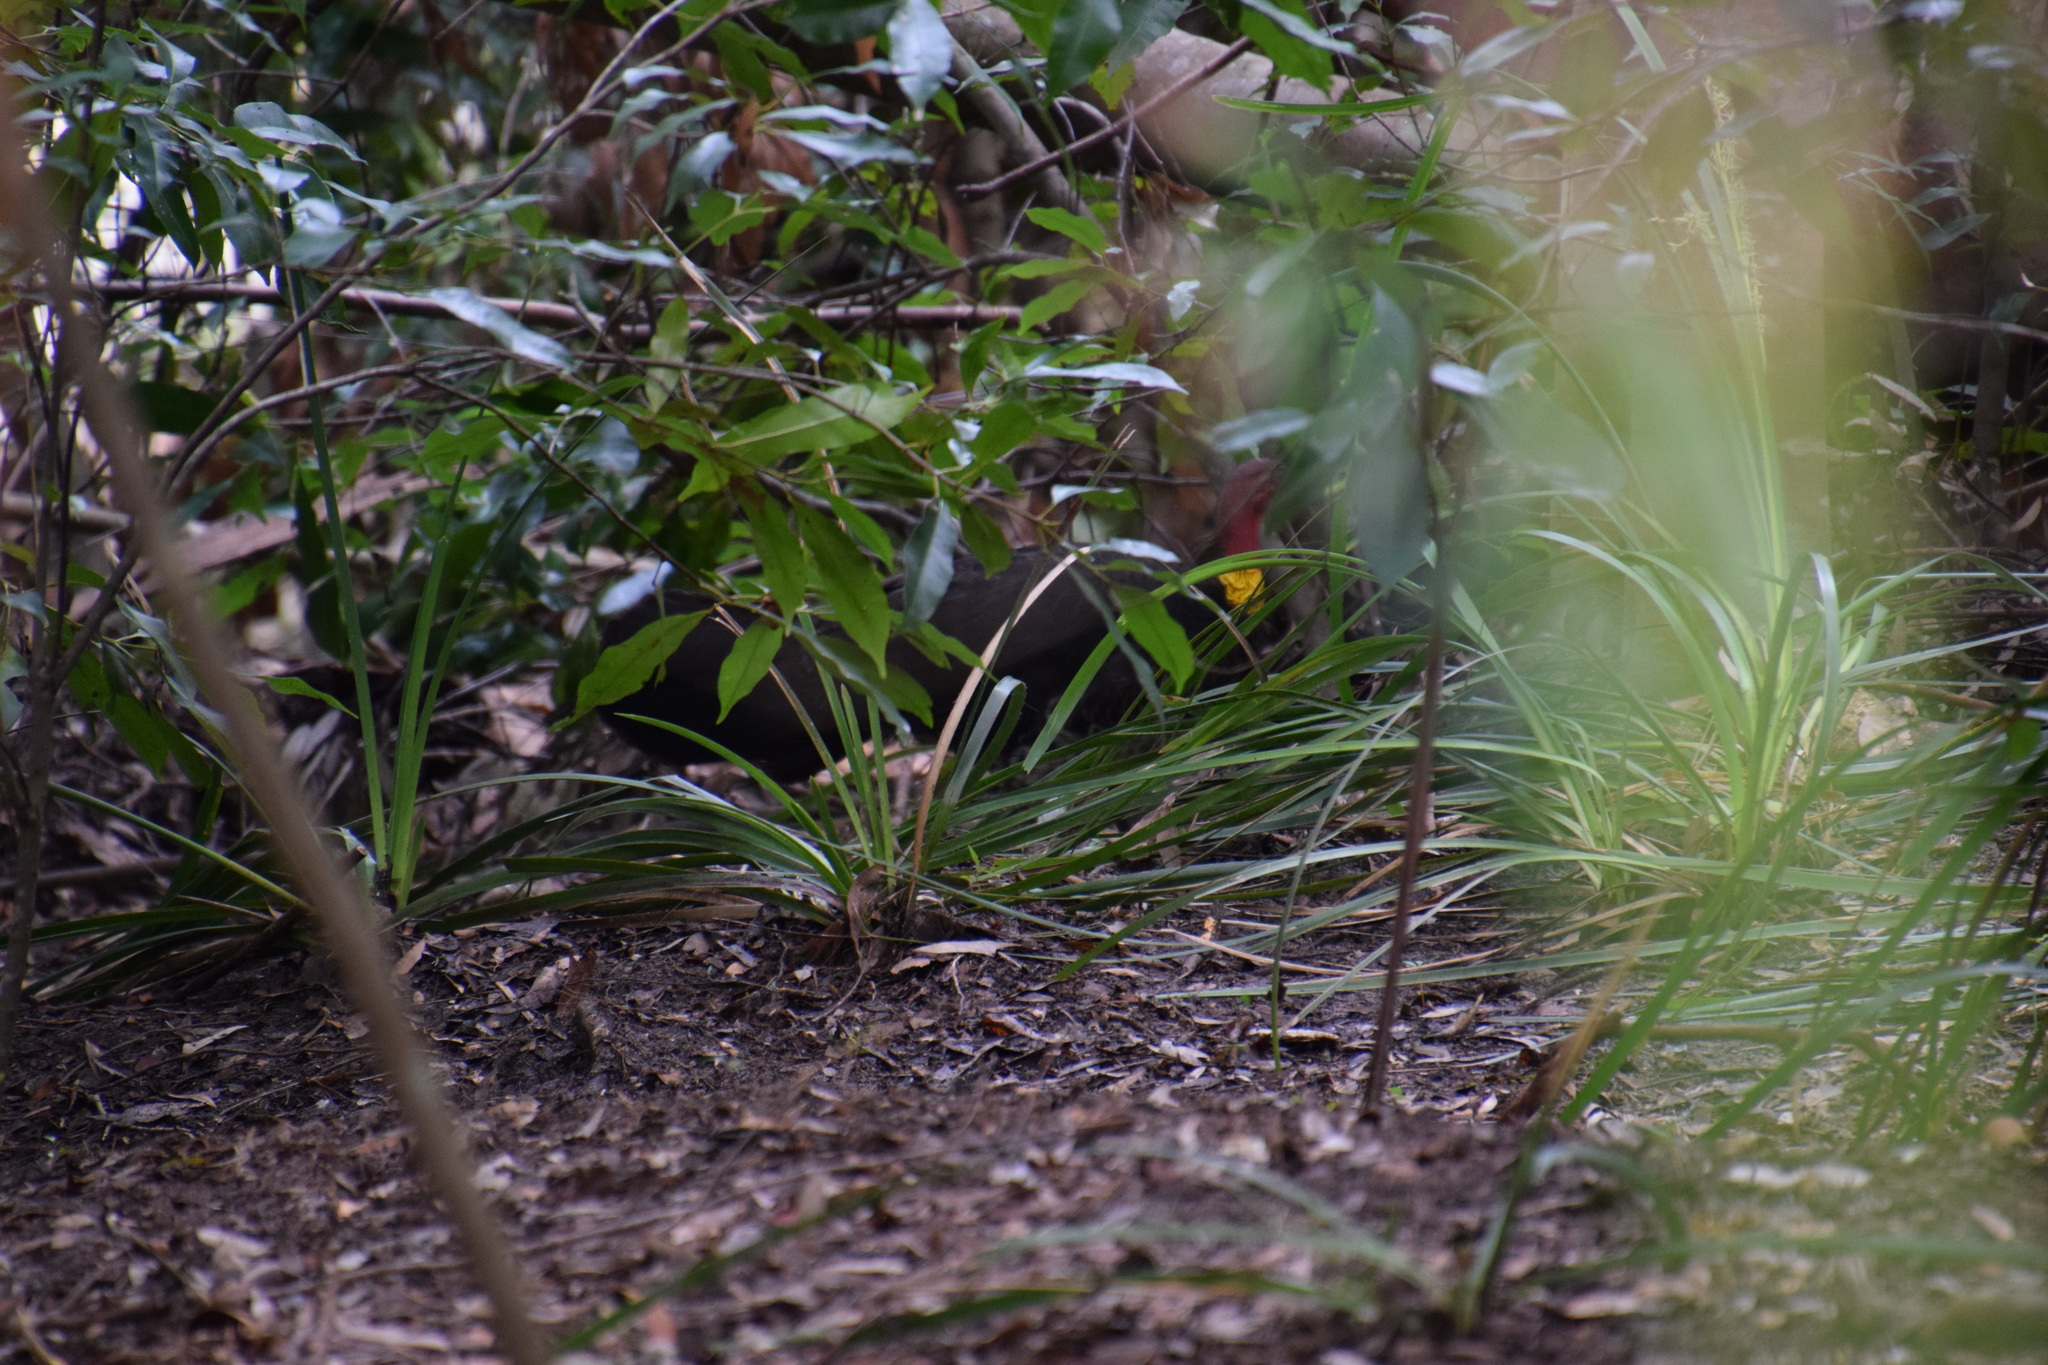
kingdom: Animalia
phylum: Chordata
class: Aves
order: Galliformes
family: Megapodiidae
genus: Alectura
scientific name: Alectura lathami
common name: Australian brushturkey
